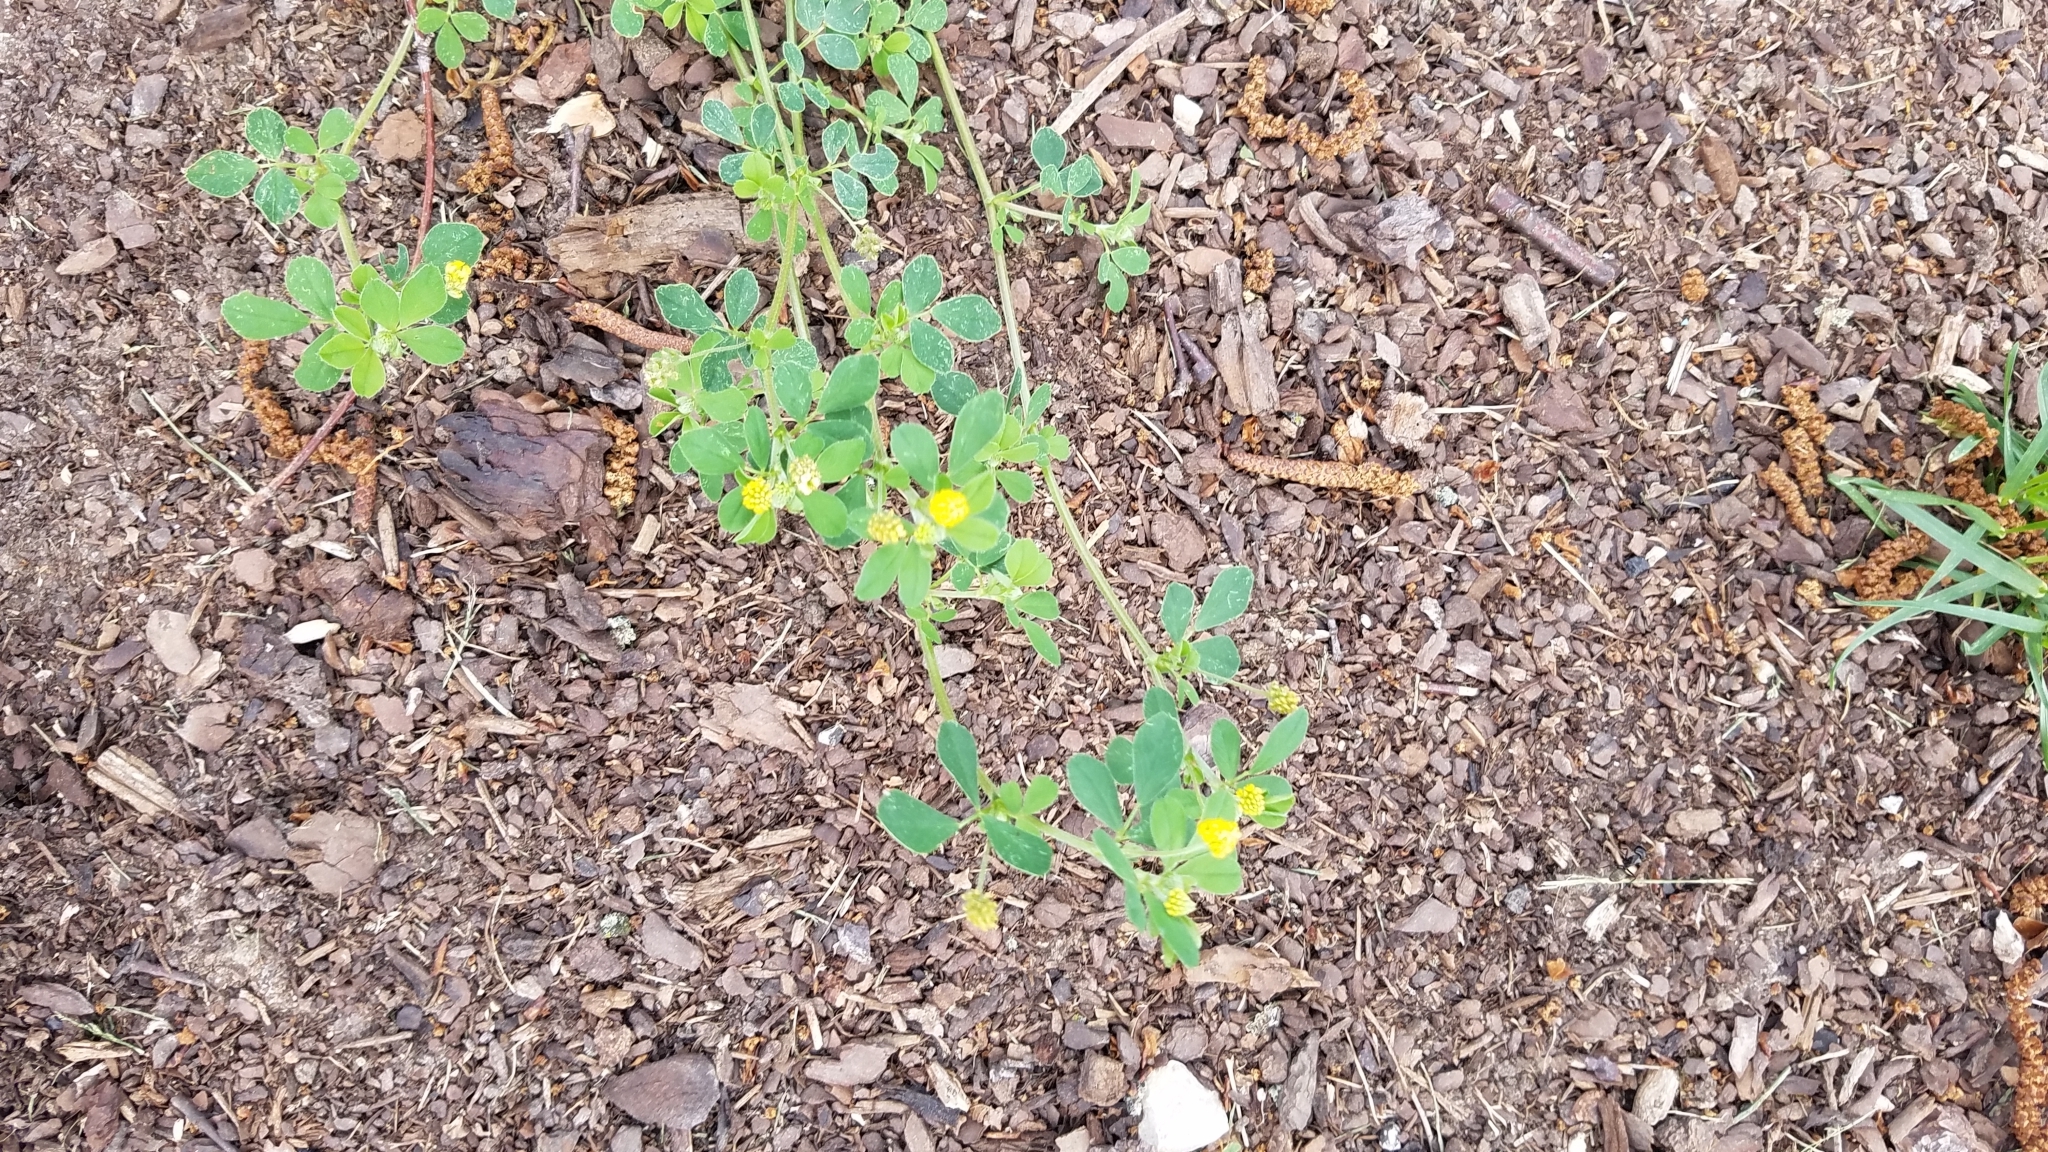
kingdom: Plantae
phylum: Tracheophyta
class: Magnoliopsida
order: Fabales
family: Fabaceae
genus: Medicago
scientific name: Medicago lupulina
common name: Black medick
